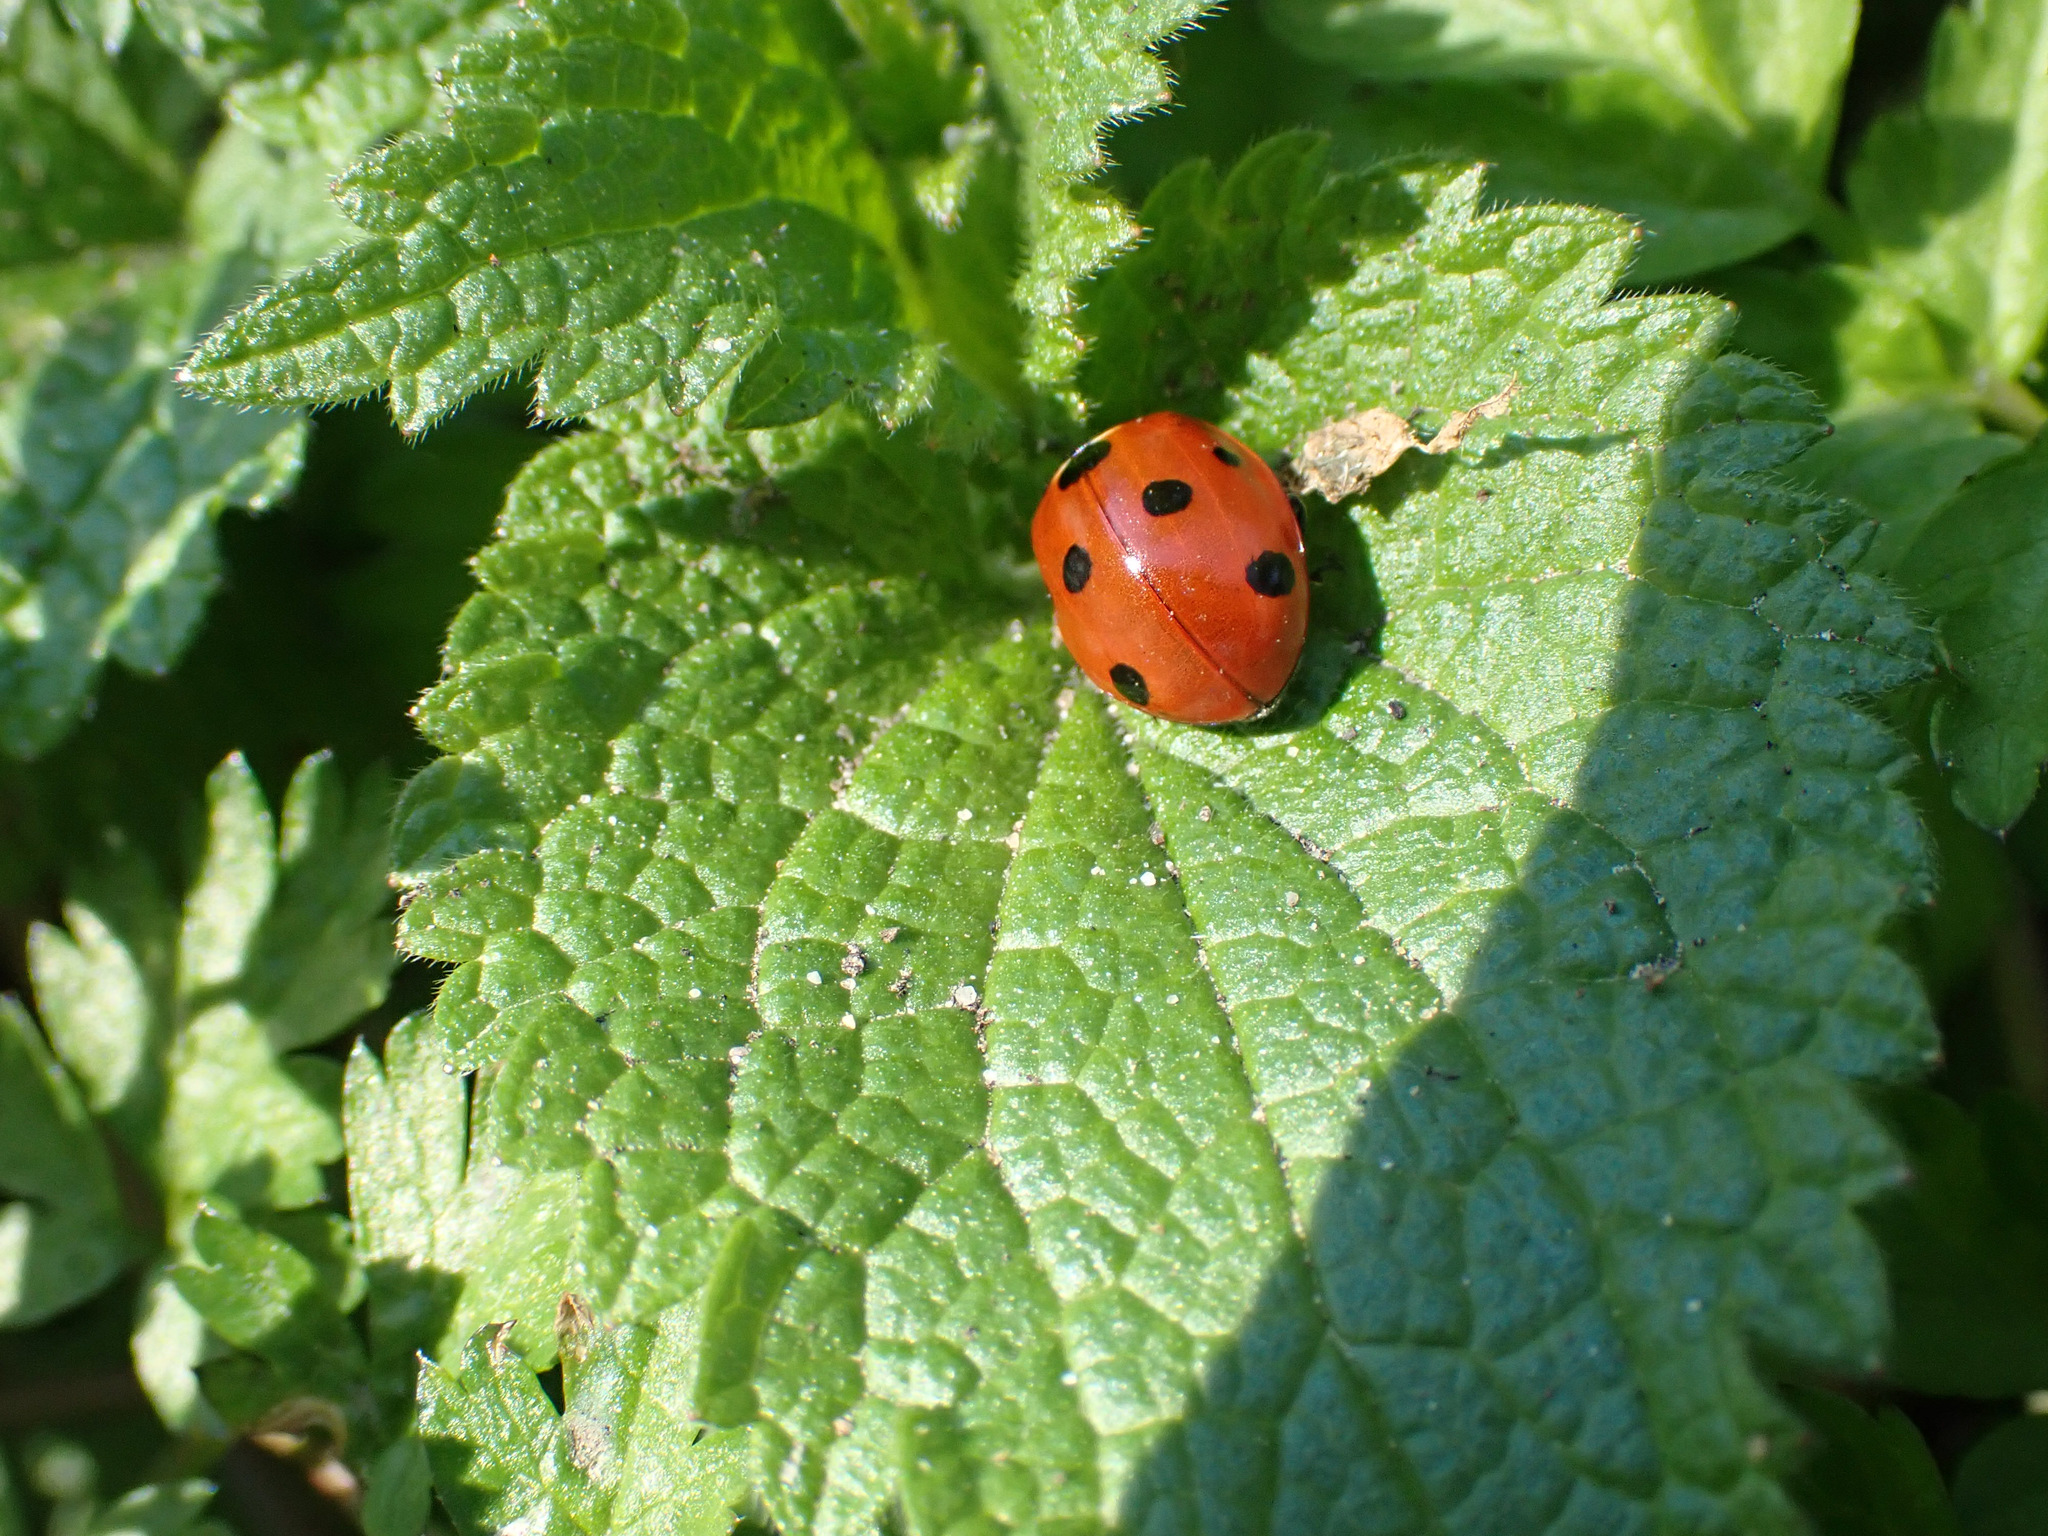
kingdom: Animalia
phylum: Arthropoda
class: Insecta
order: Coleoptera
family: Coccinellidae
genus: Coccinella
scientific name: Coccinella septempunctata
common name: Sevenspotted lady beetle
